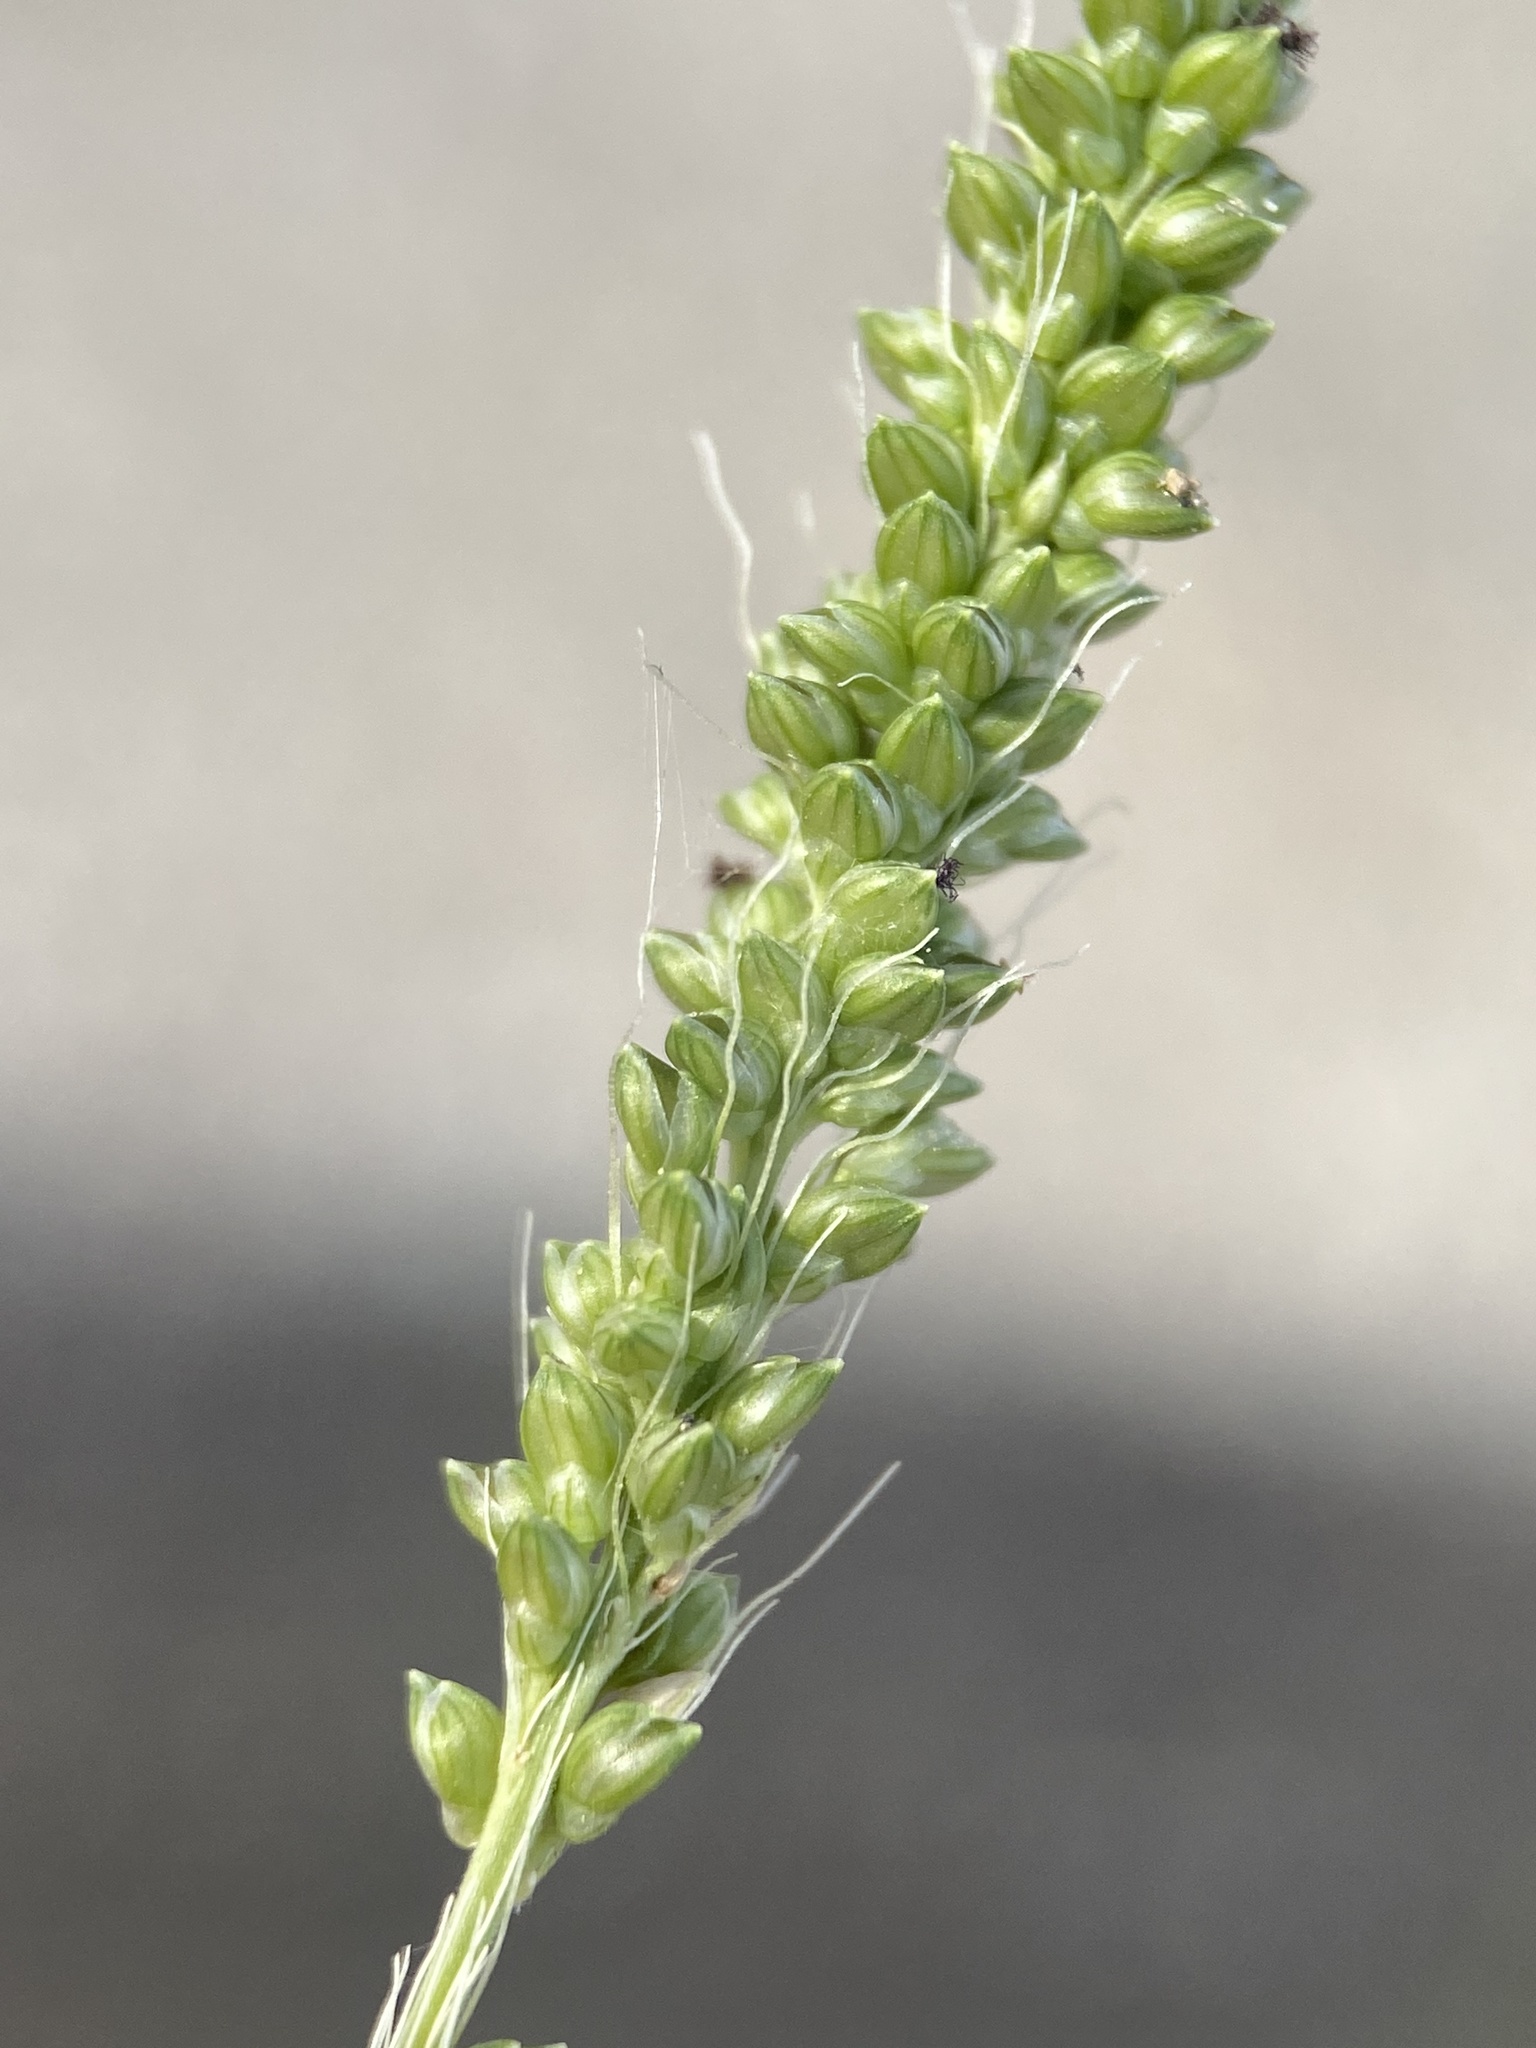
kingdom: Plantae
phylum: Tracheophyta
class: Liliopsida
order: Poales
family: Poaceae
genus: Setaria
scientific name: Setaria leucopila
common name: Plains bristle grass
